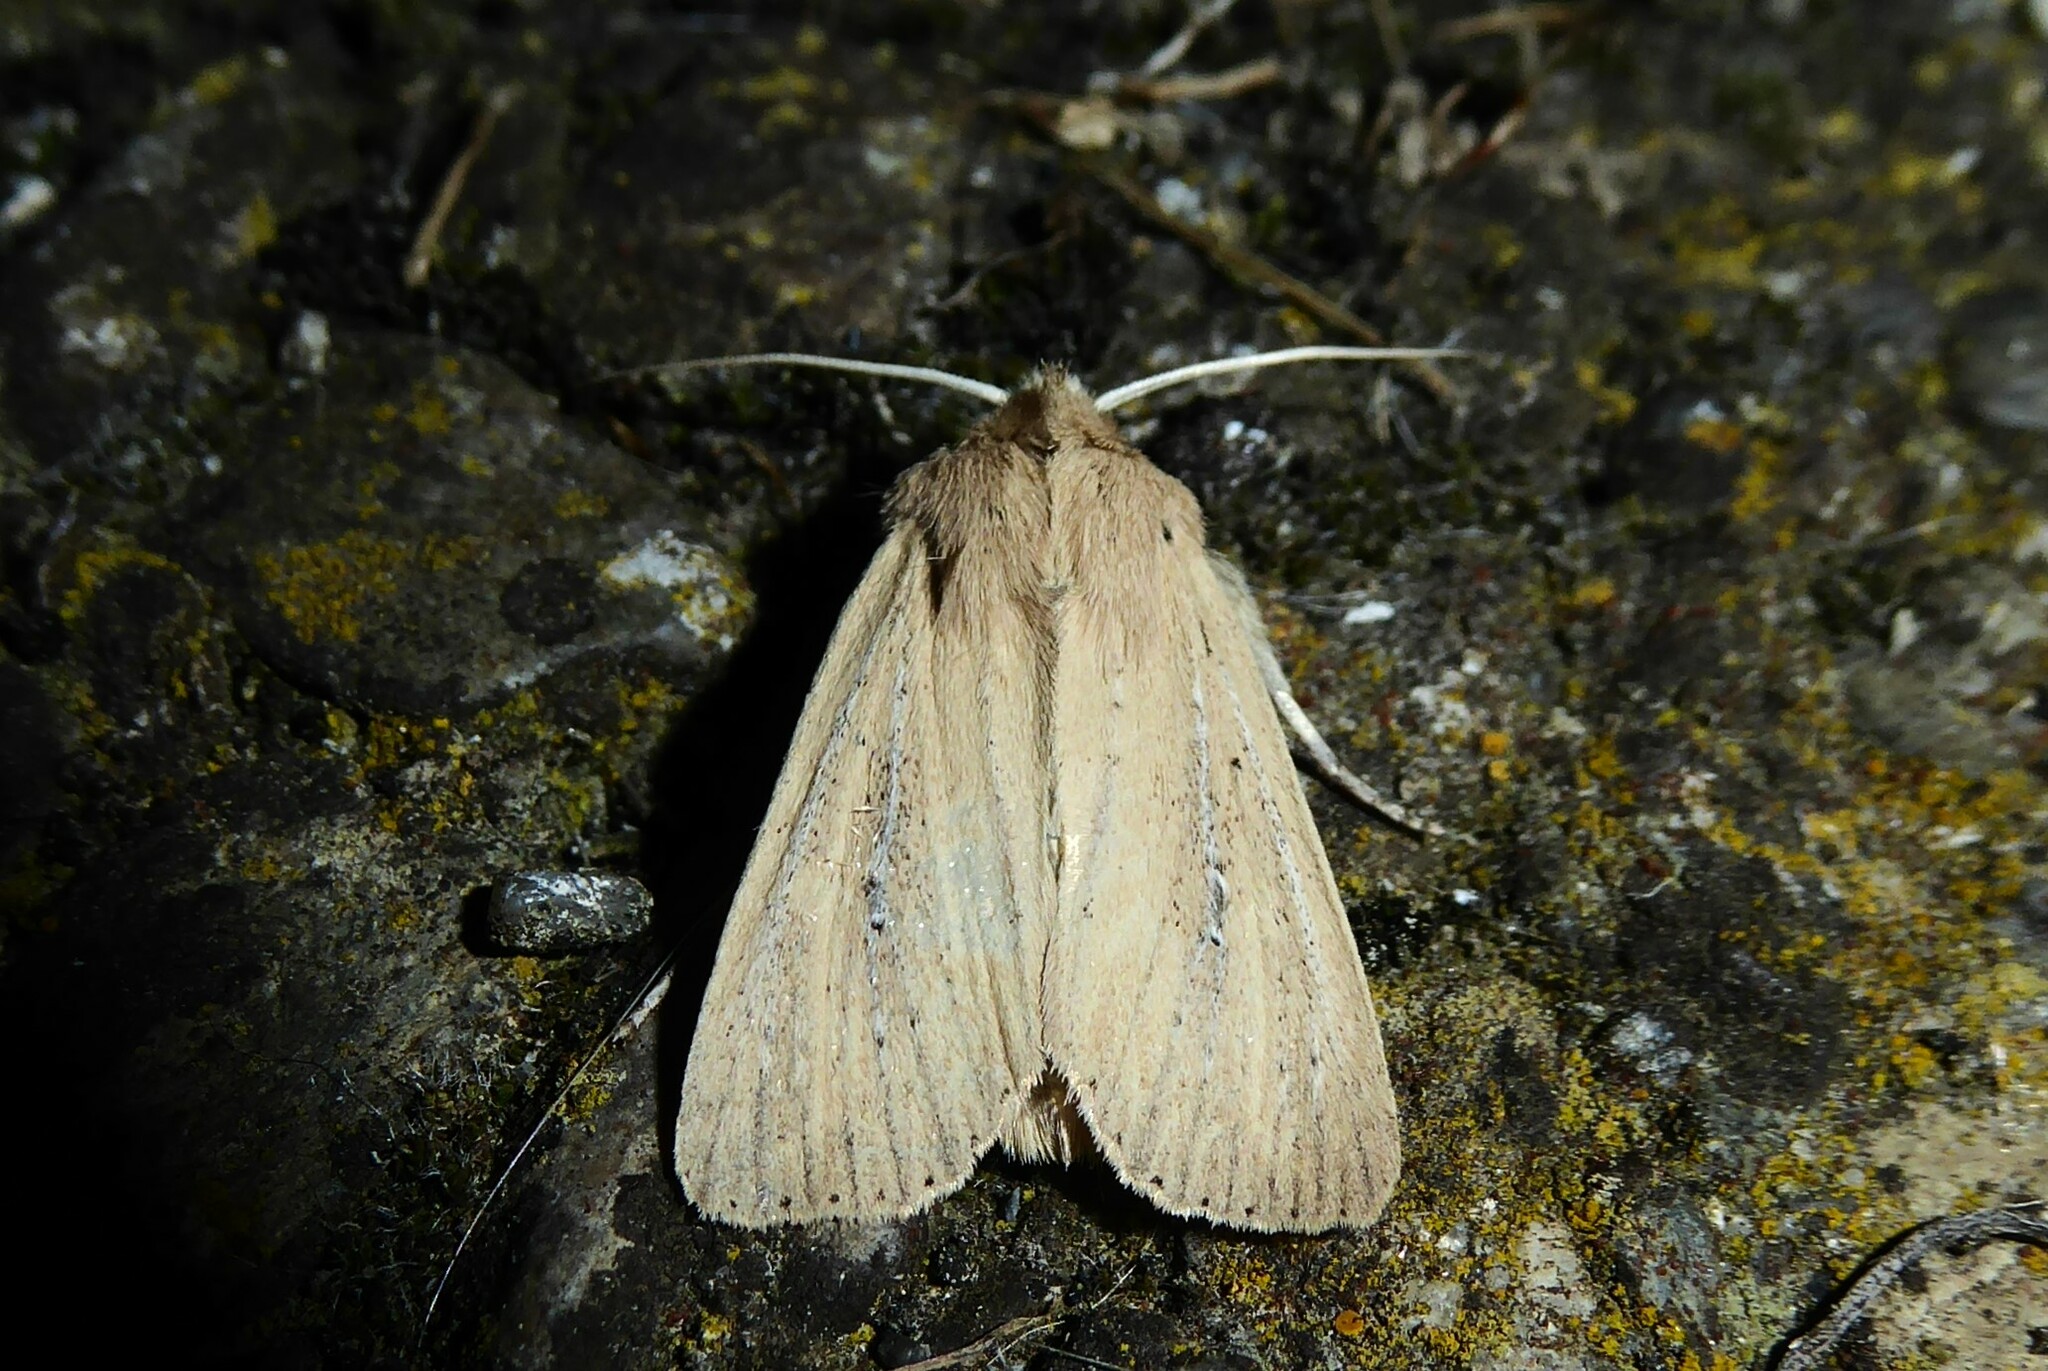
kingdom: Animalia
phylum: Arthropoda
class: Insecta
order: Lepidoptera
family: Noctuidae
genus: Ichneutica
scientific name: Ichneutica
